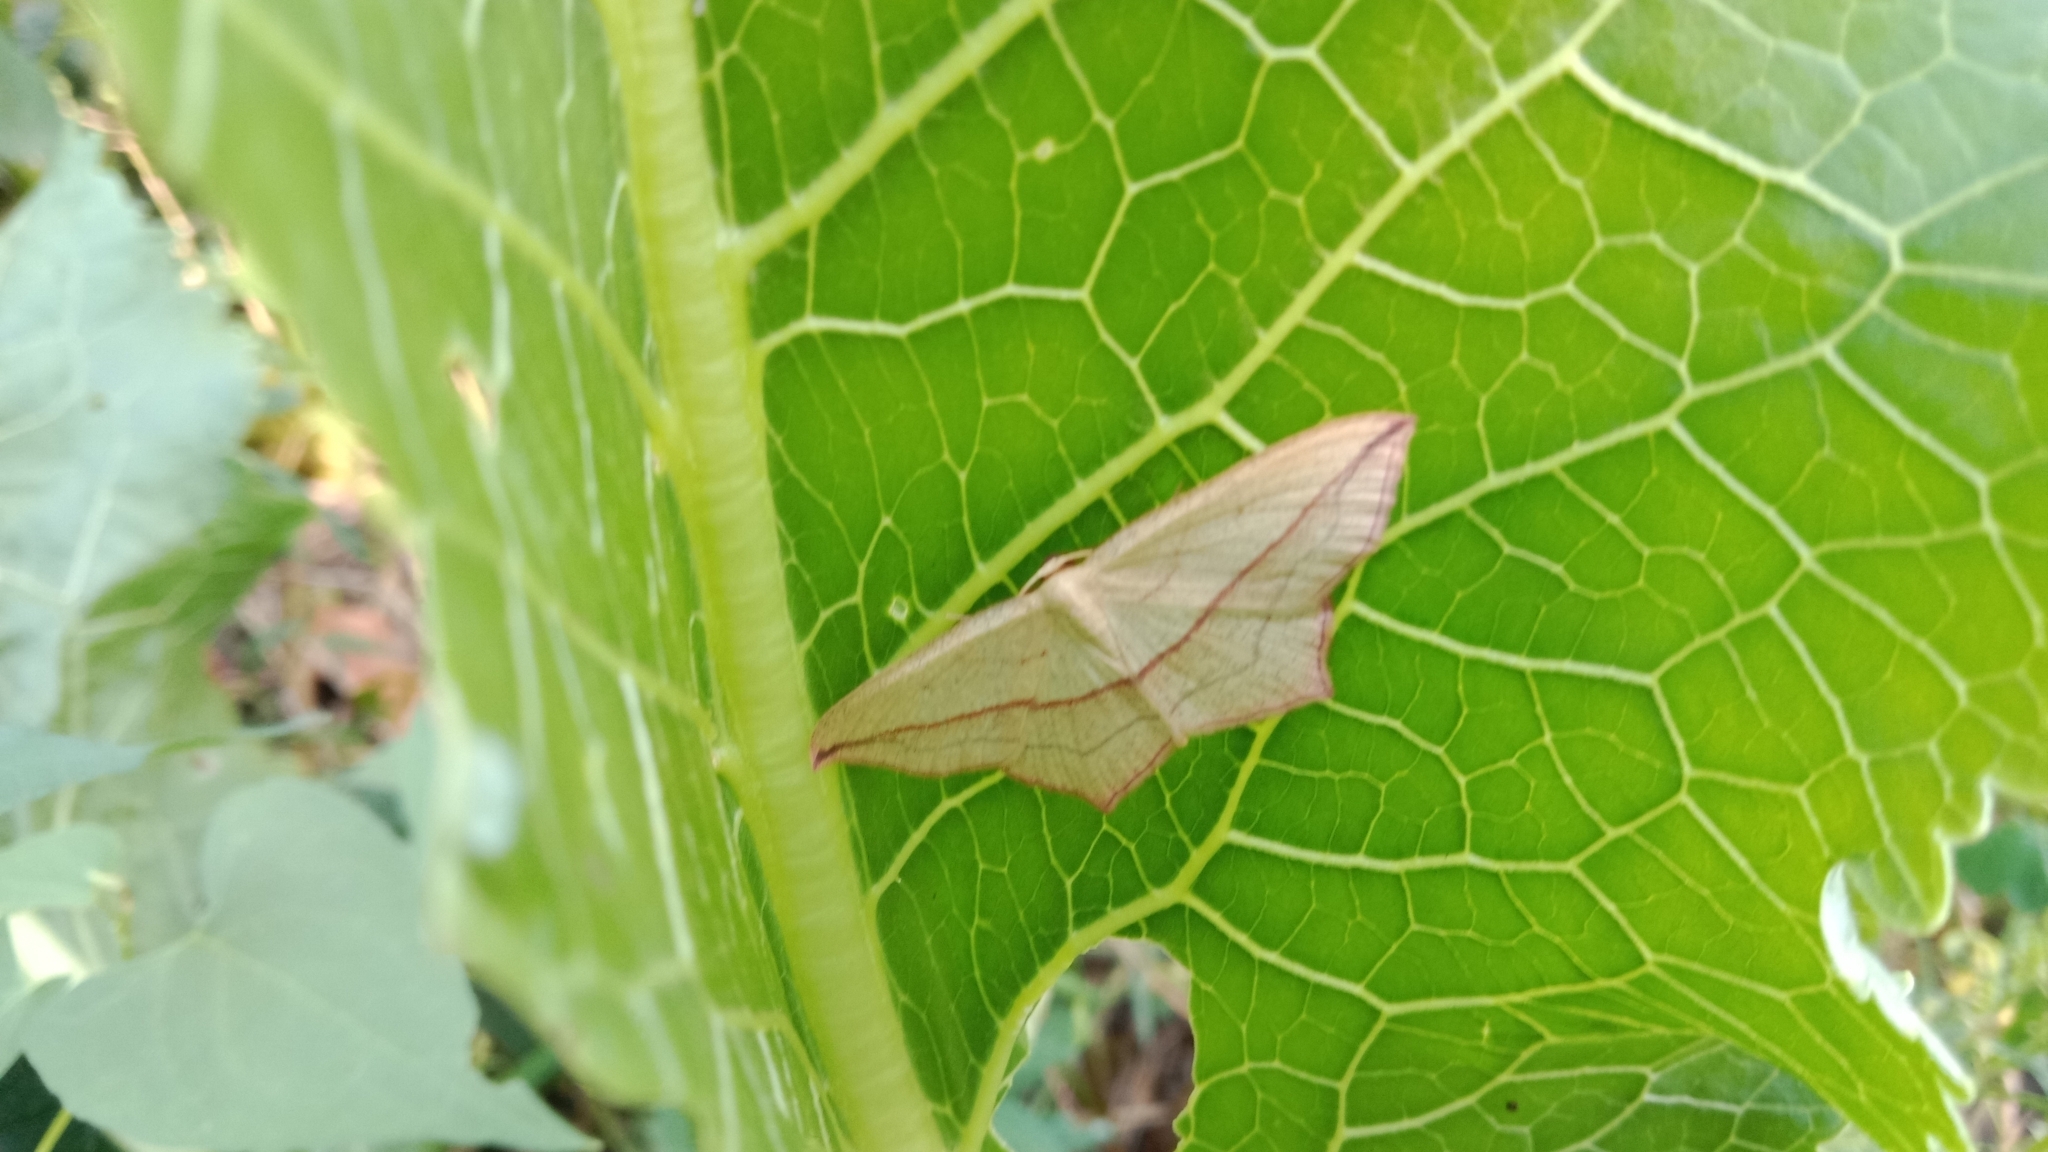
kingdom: Animalia
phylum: Arthropoda
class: Insecta
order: Lepidoptera
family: Geometridae
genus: Timandra
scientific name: Timandra comae
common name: Blood-vein
